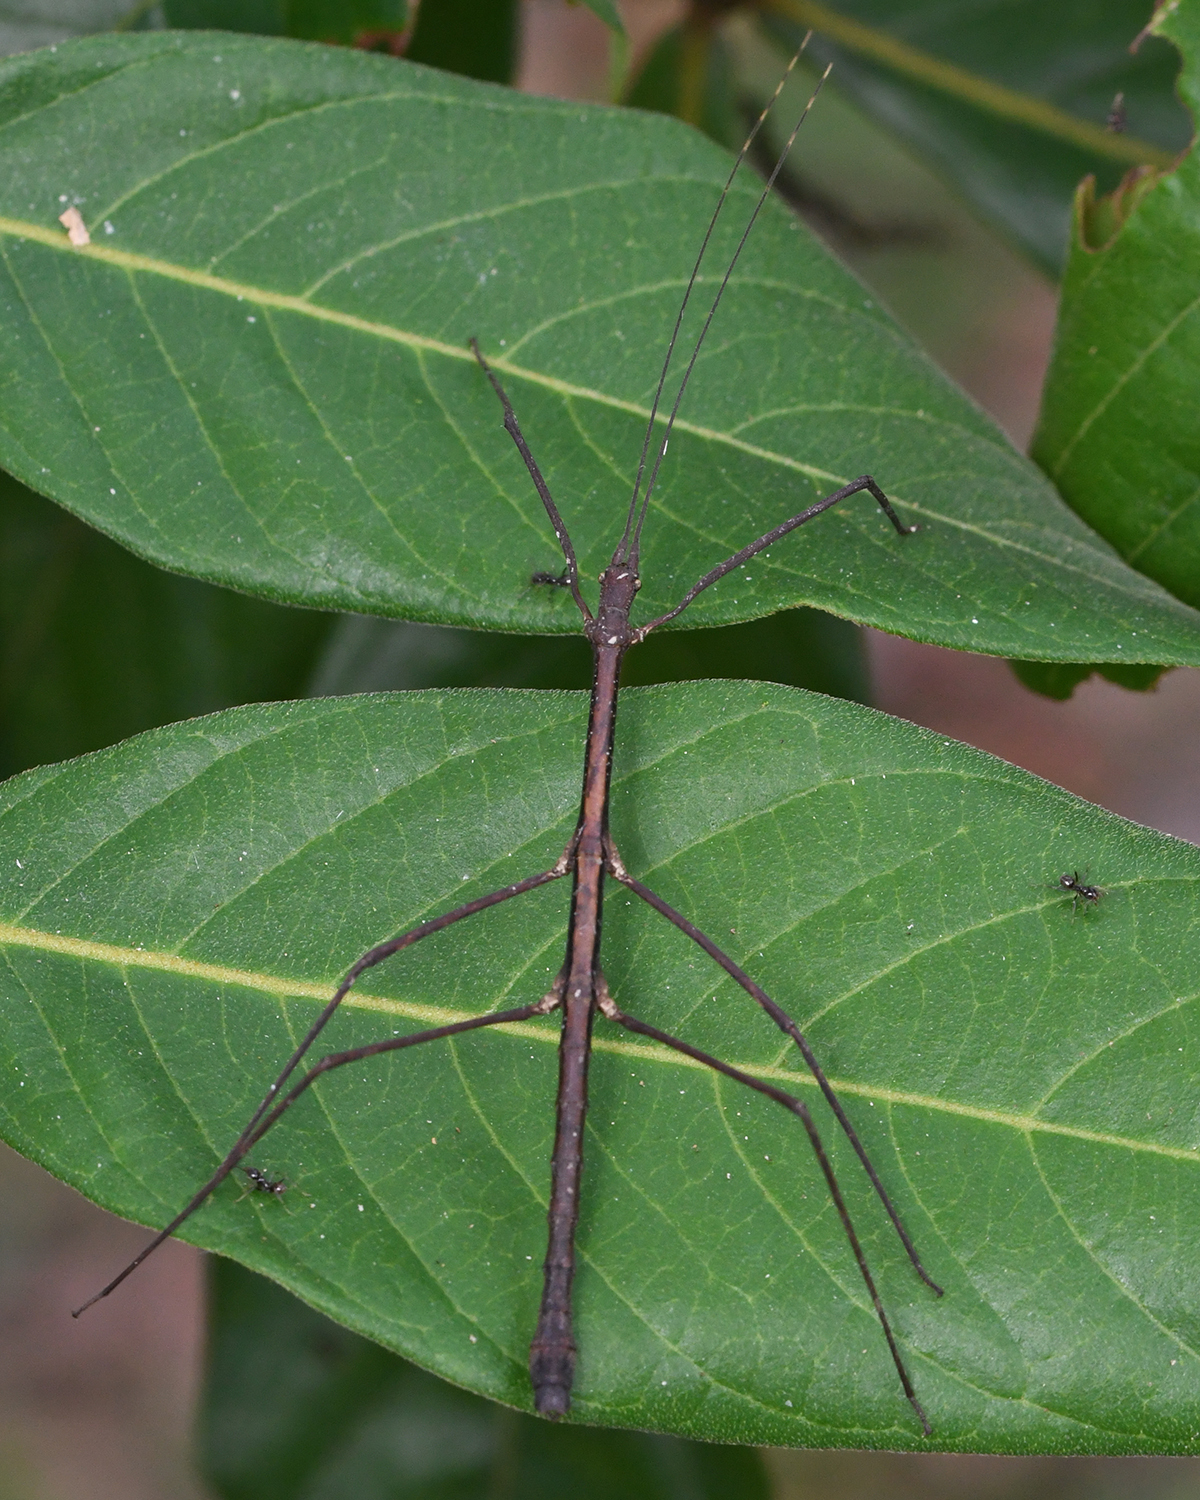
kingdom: Animalia
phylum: Arthropoda
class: Insecta
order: Phasmida
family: Diapheromeridae
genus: Ocnophiloidea
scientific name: Ocnophiloidea regularis
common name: Trinidad twig
